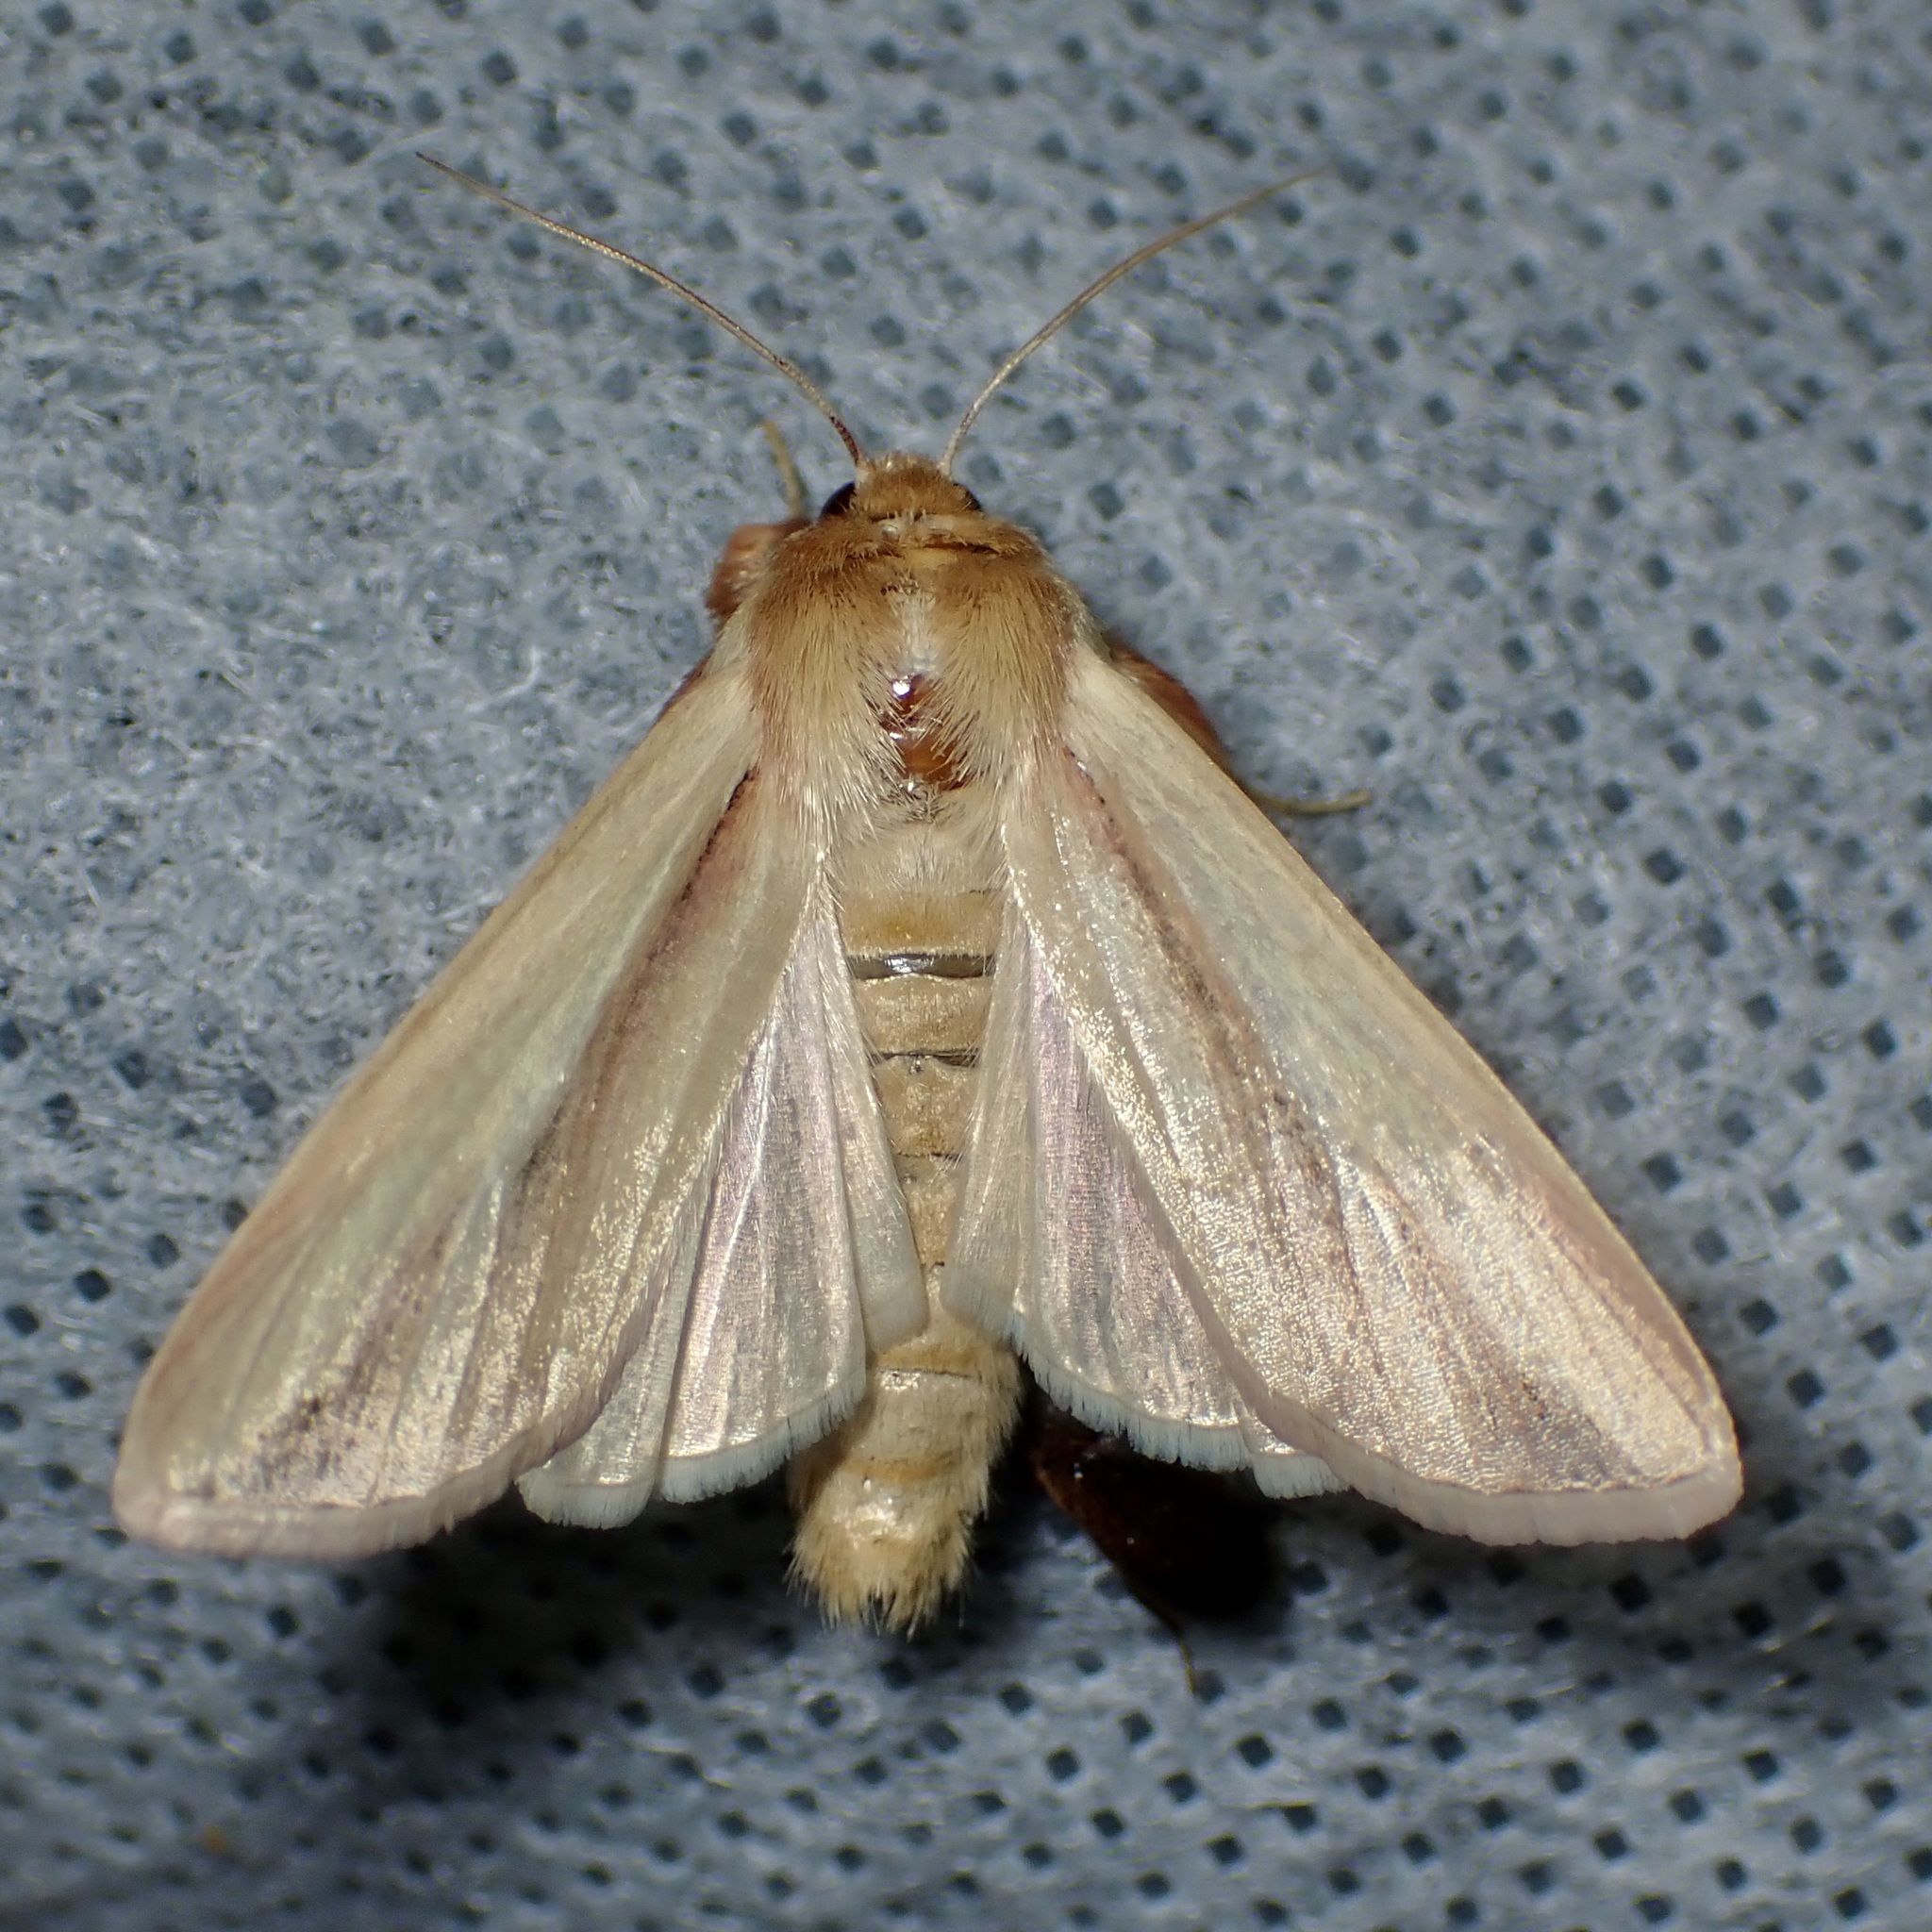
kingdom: Animalia
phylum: Arthropoda
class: Insecta
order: Lepidoptera
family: Noctuidae
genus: Dargida
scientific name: Dargida rubripennis
